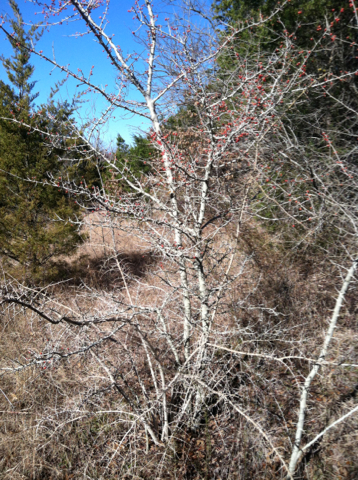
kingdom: Plantae
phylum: Tracheophyta
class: Magnoliopsida
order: Aquifoliales
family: Aquifoliaceae
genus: Ilex
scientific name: Ilex decidua
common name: Possum-haw
